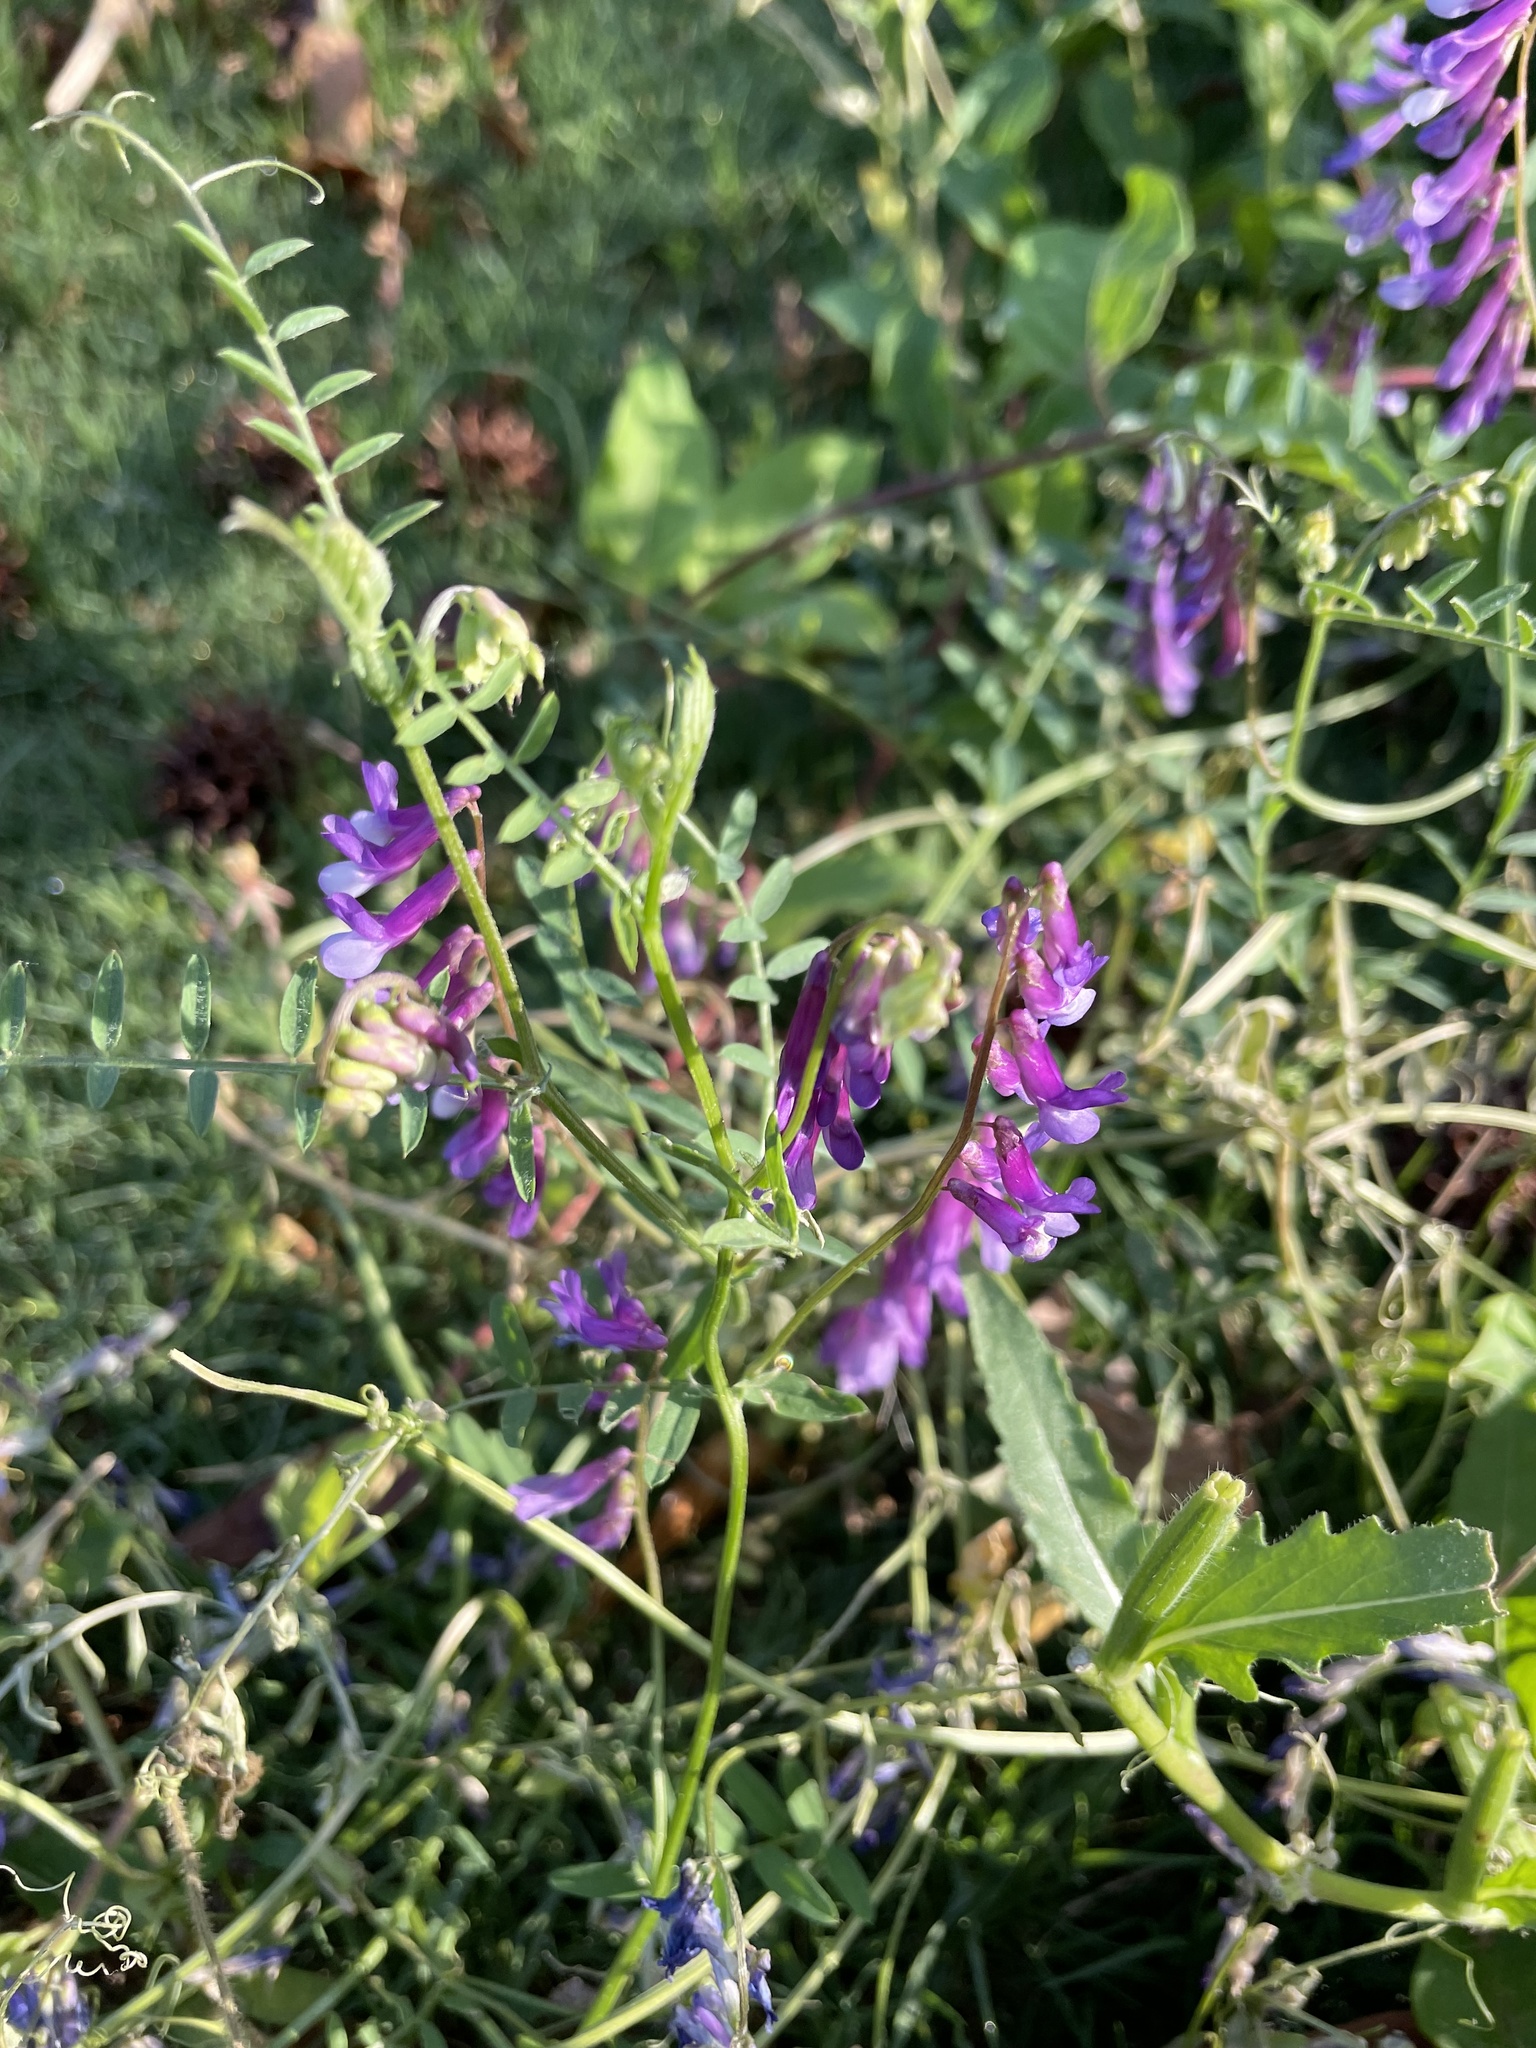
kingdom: Plantae
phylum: Tracheophyta
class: Magnoliopsida
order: Fabales
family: Fabaceae
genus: Vicia
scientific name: Vicia villosa
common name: Fodder vetch
